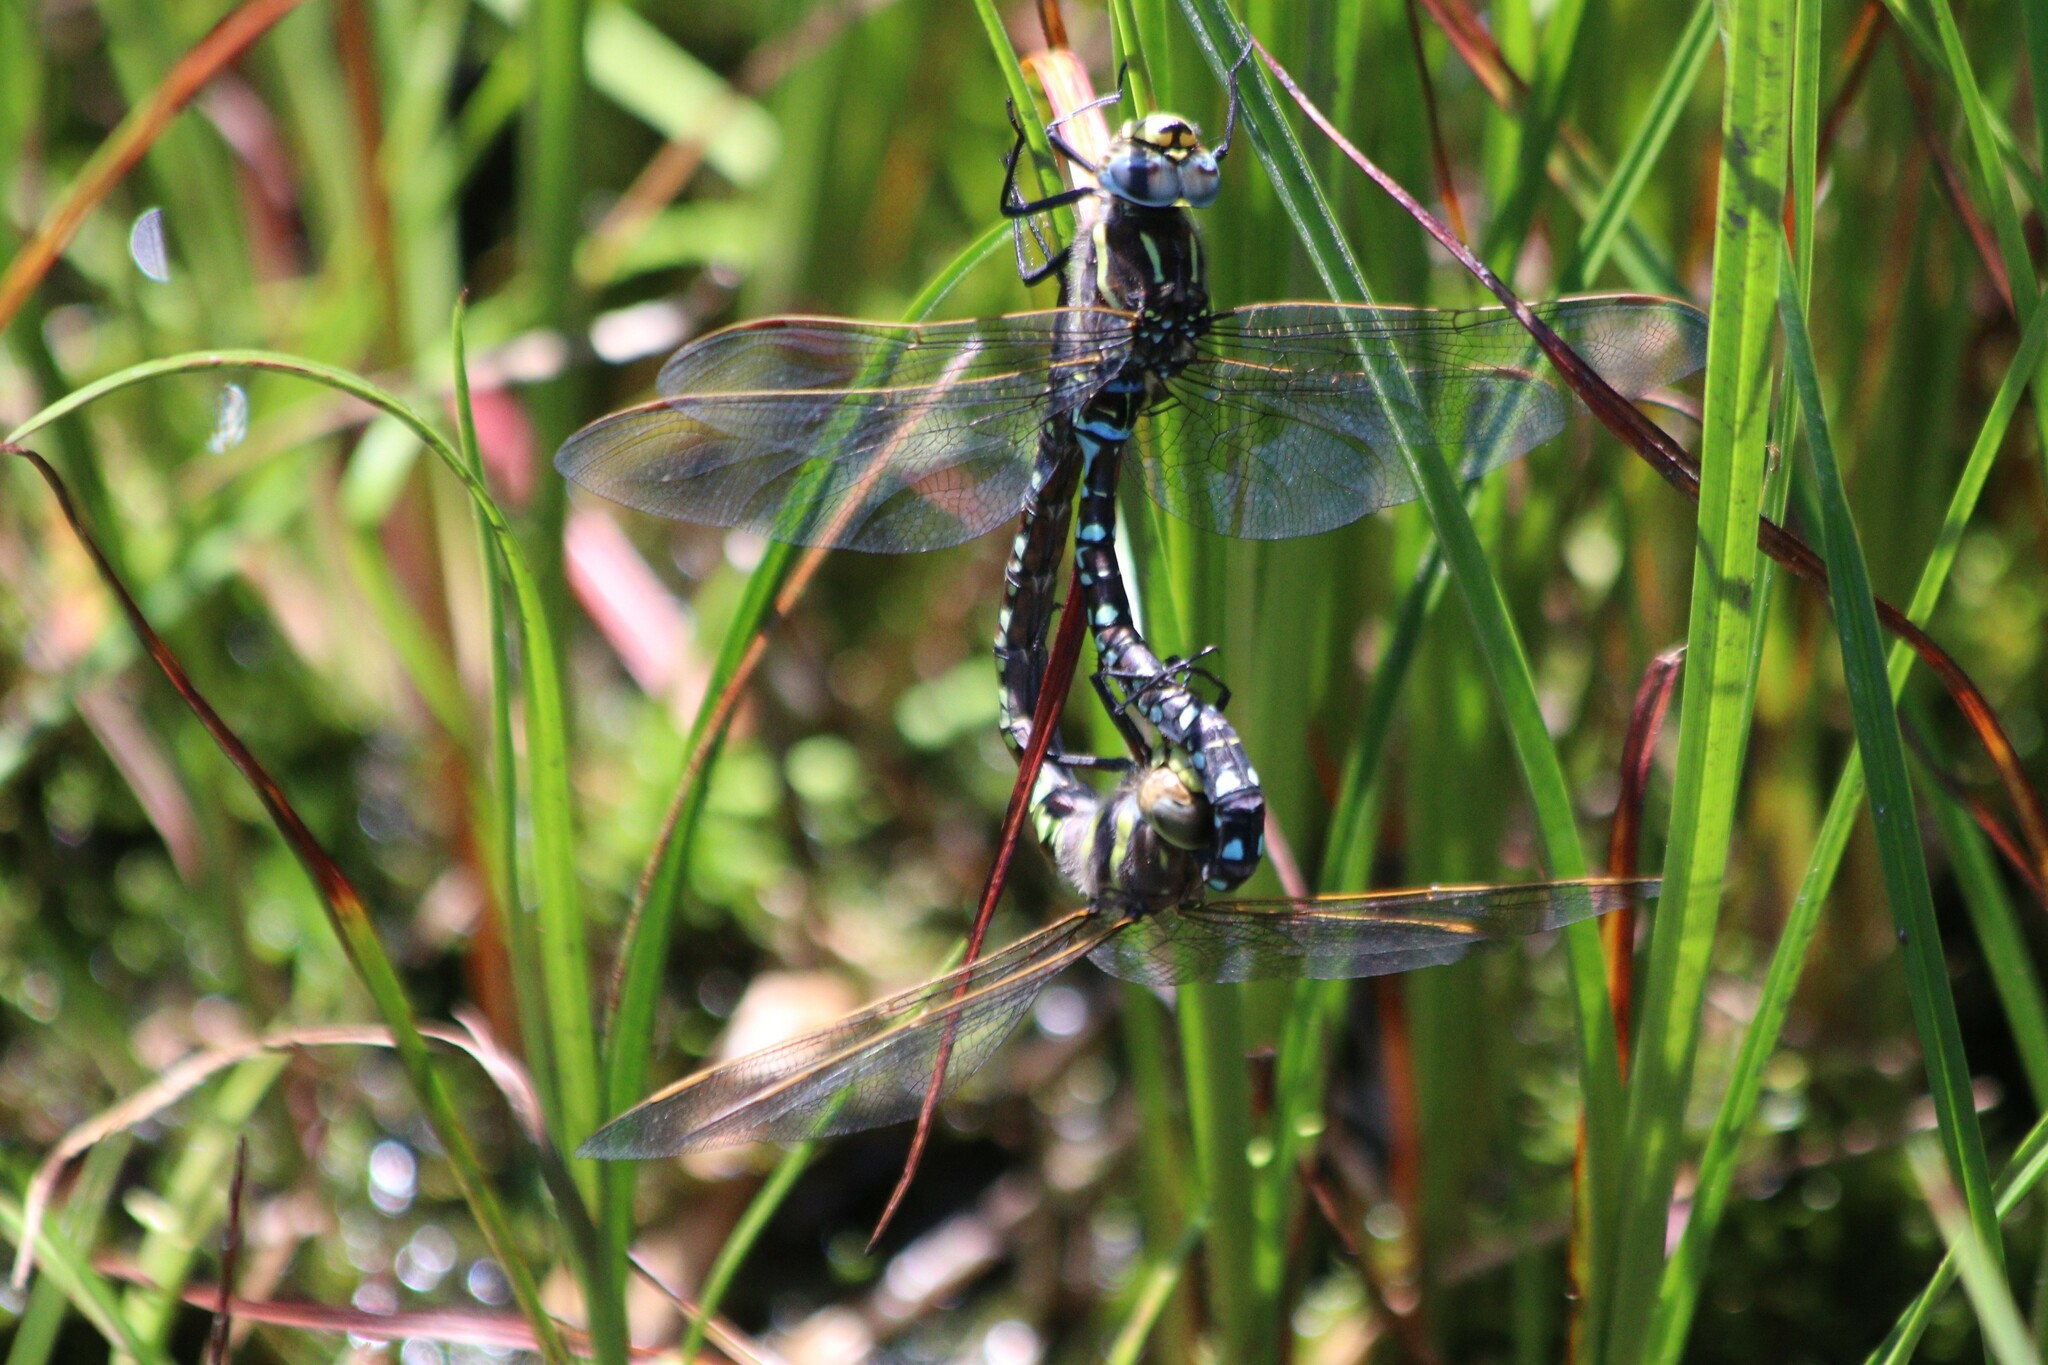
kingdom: Animalia
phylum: Arthropoda
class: Insecta
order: Odonata
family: Aeshnidae
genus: Aeshna
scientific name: Aeshna juncea
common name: Moorland hawker
